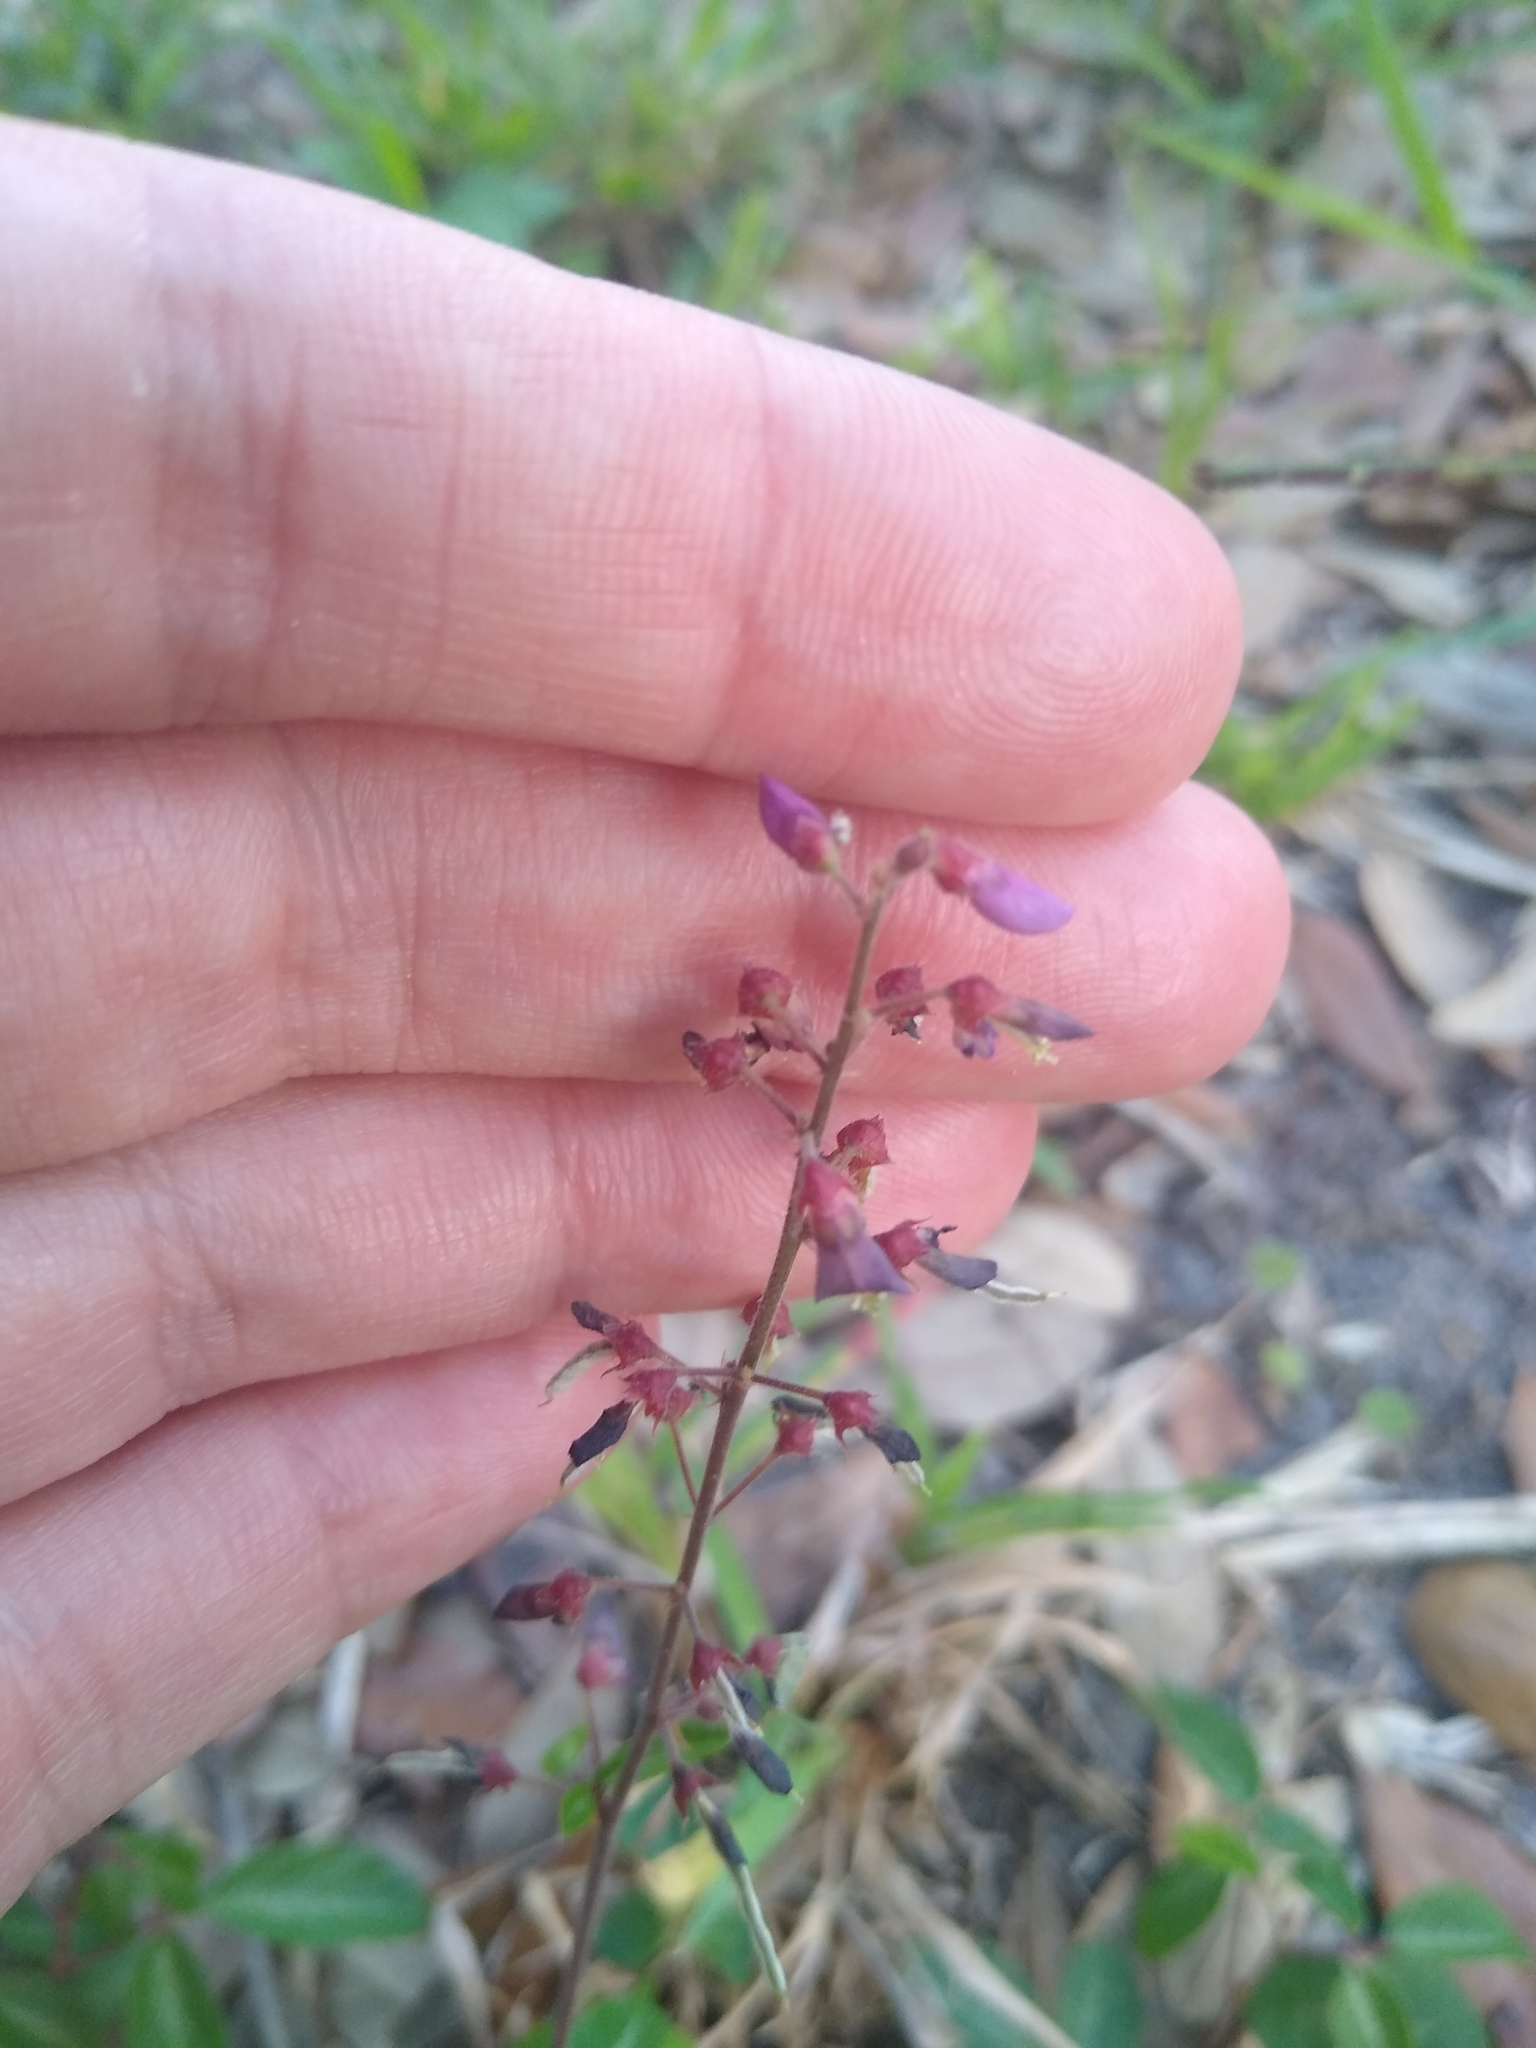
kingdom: Plantae
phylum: Tracheophyta
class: Magnoliopsida
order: Fabales
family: Fabaceae
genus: Desmodium
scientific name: Desmodium incanum
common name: Tickclover
